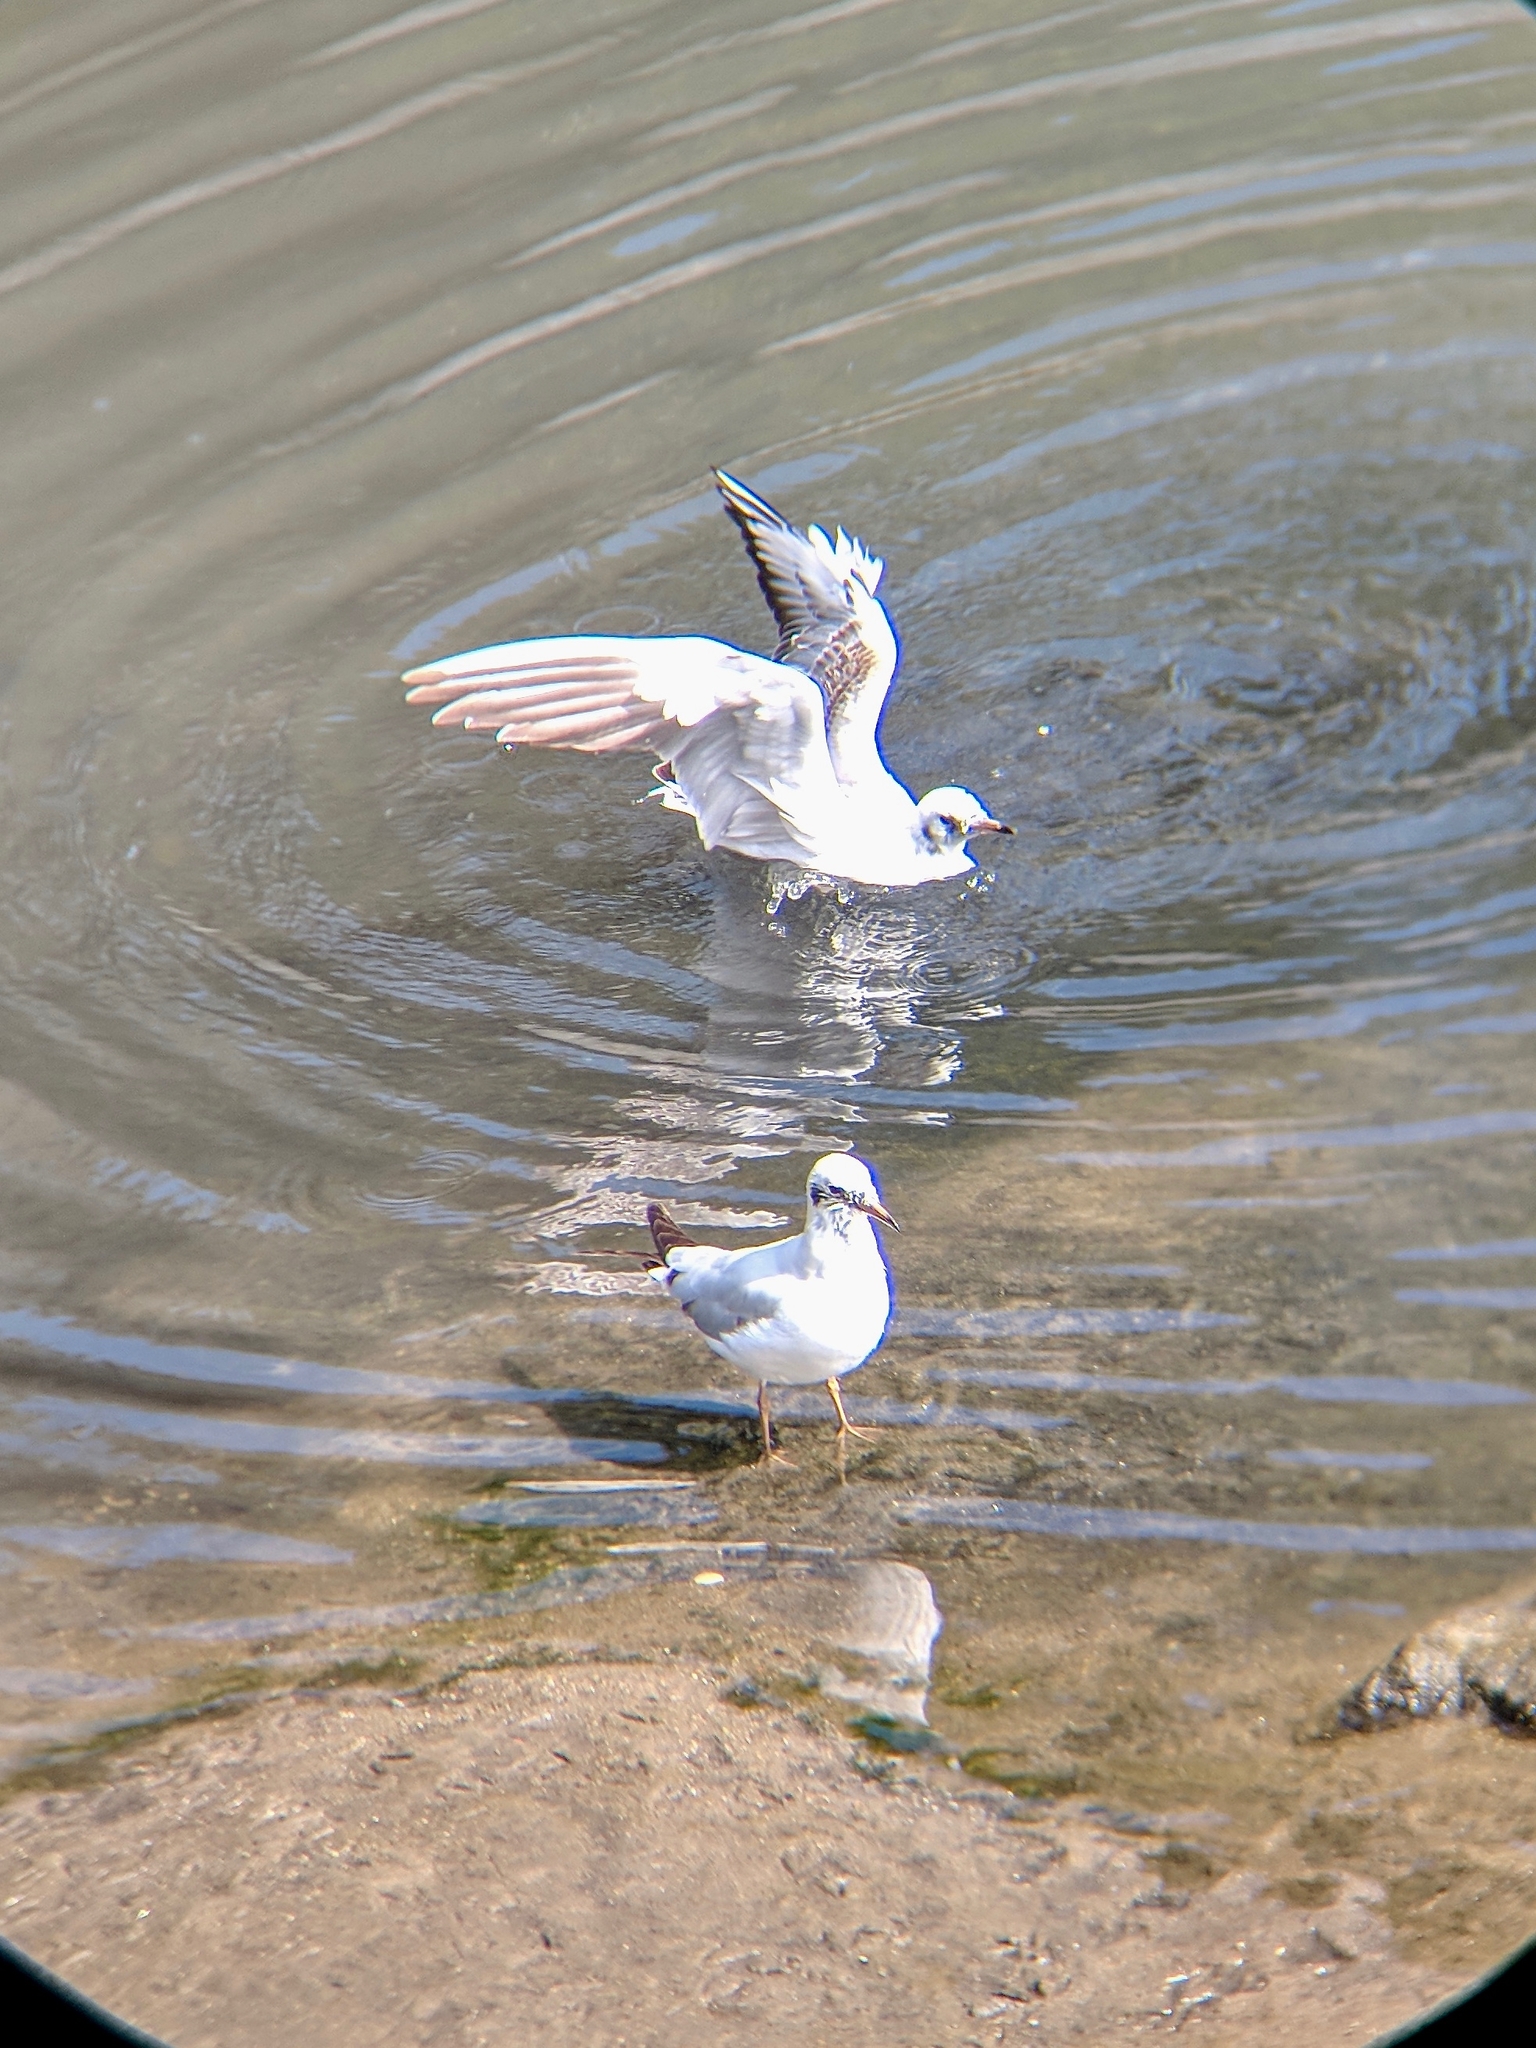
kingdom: Animalia
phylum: Chordata
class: Aves
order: Charadriiformes
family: Laridae
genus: Chroicocephalus
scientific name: Chroicocephalus ridibundus
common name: Black-headed gull
